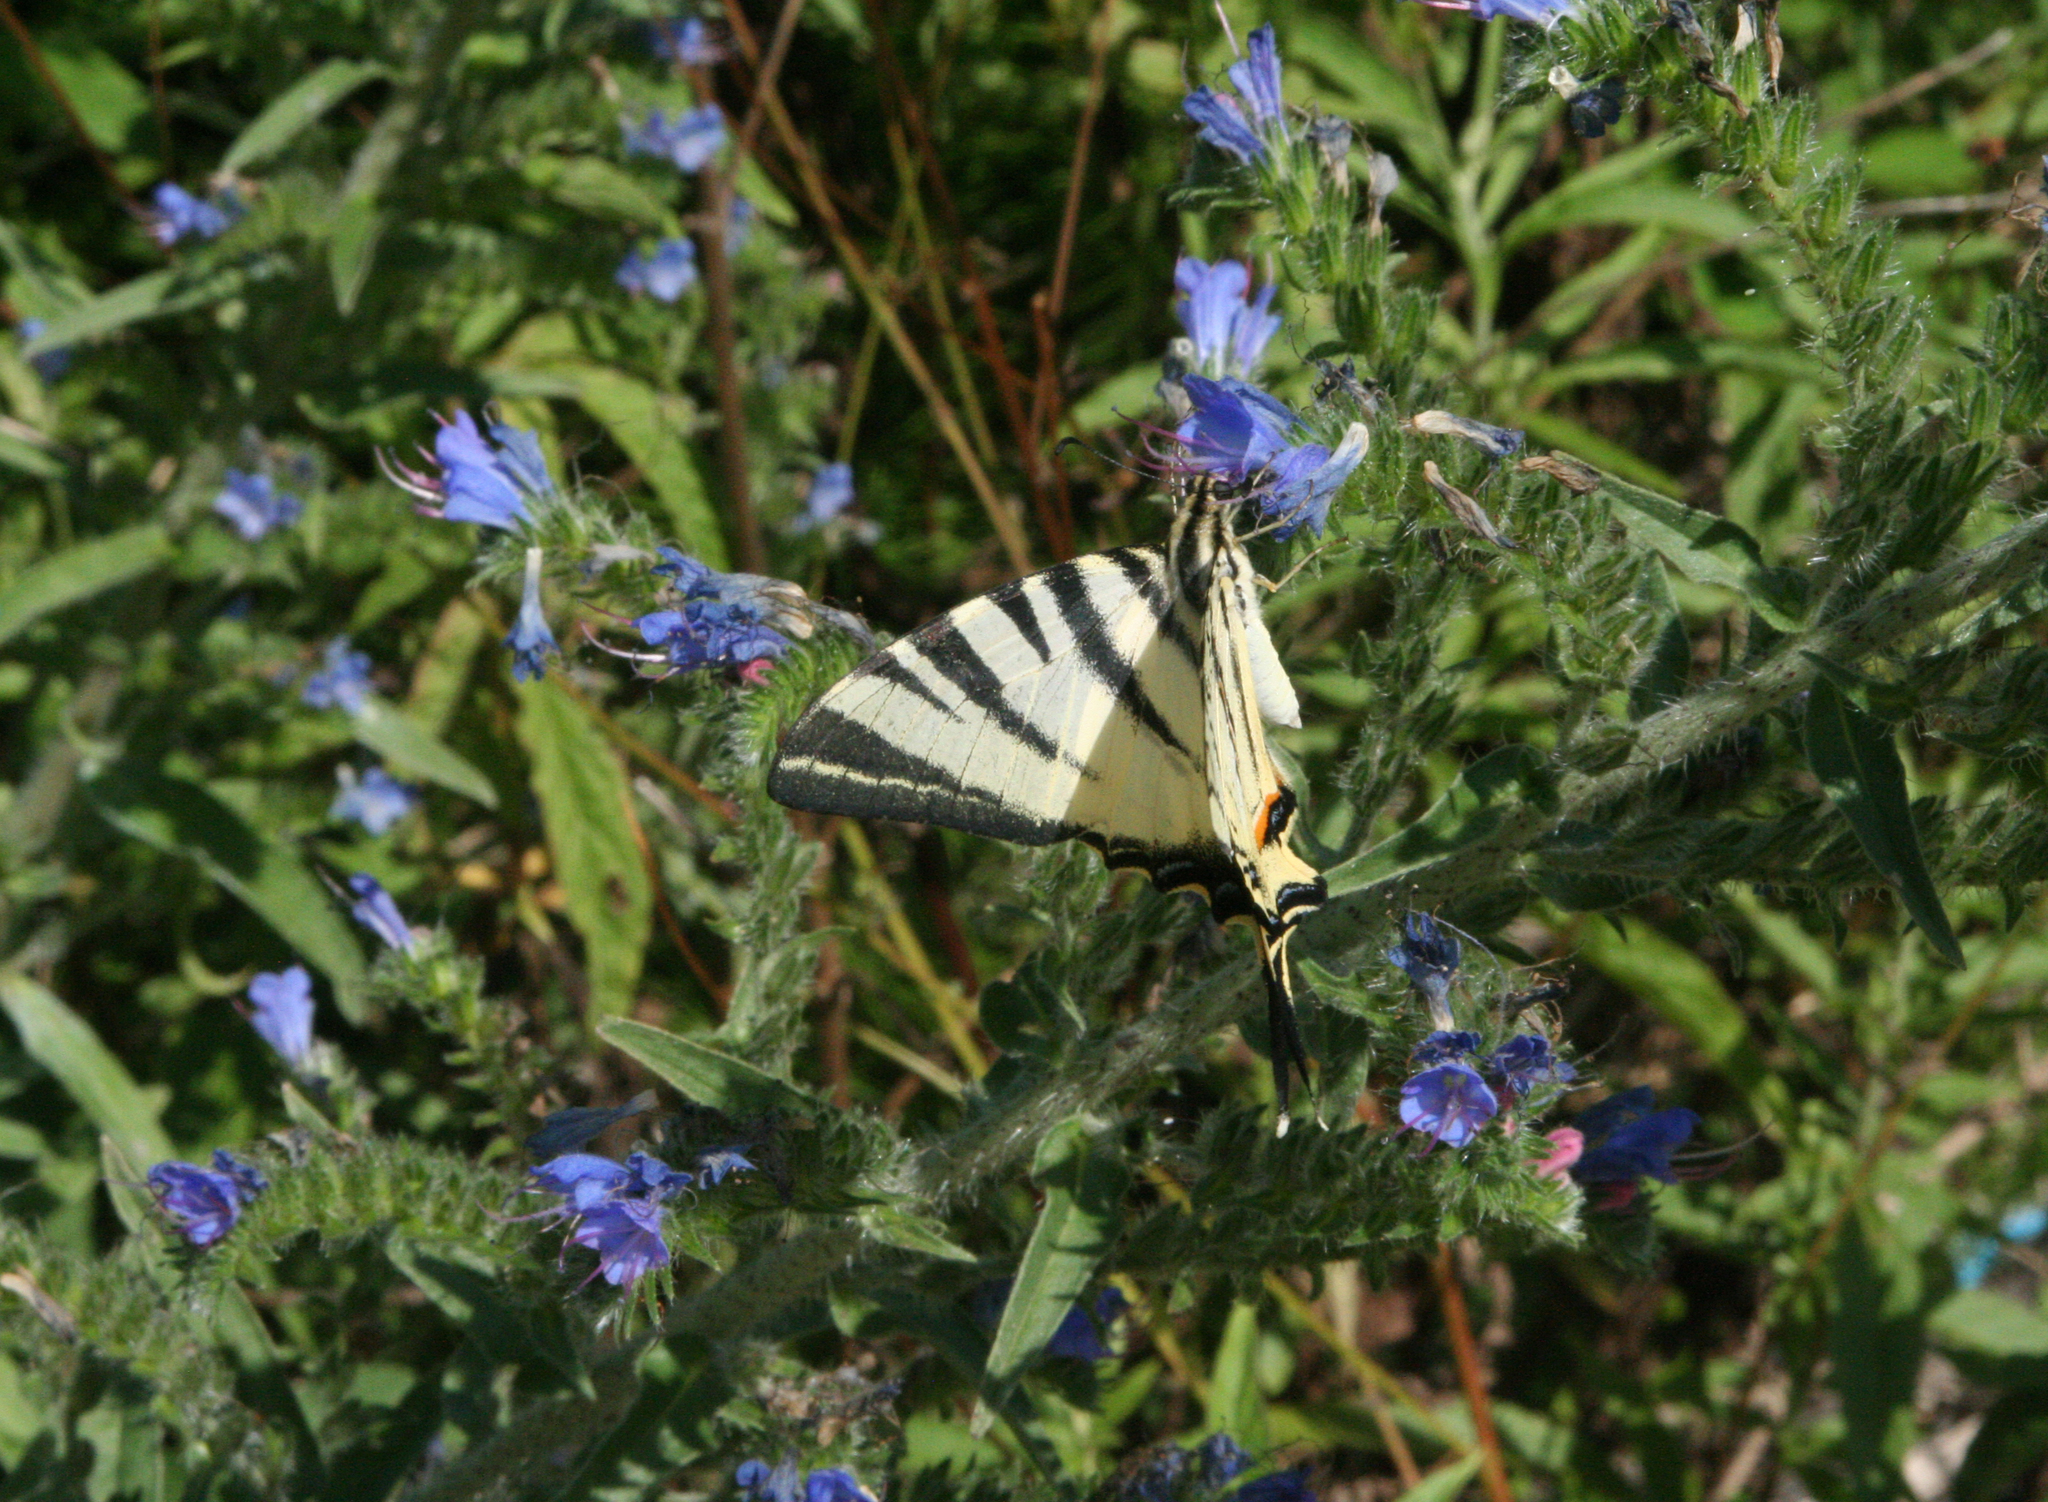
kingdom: Plantae
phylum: Tracheophyta
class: Magnoliopsida
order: Boraginales
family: Boraginaceae
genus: Echium
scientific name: Echium vulgare
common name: Common viper's bugloss
